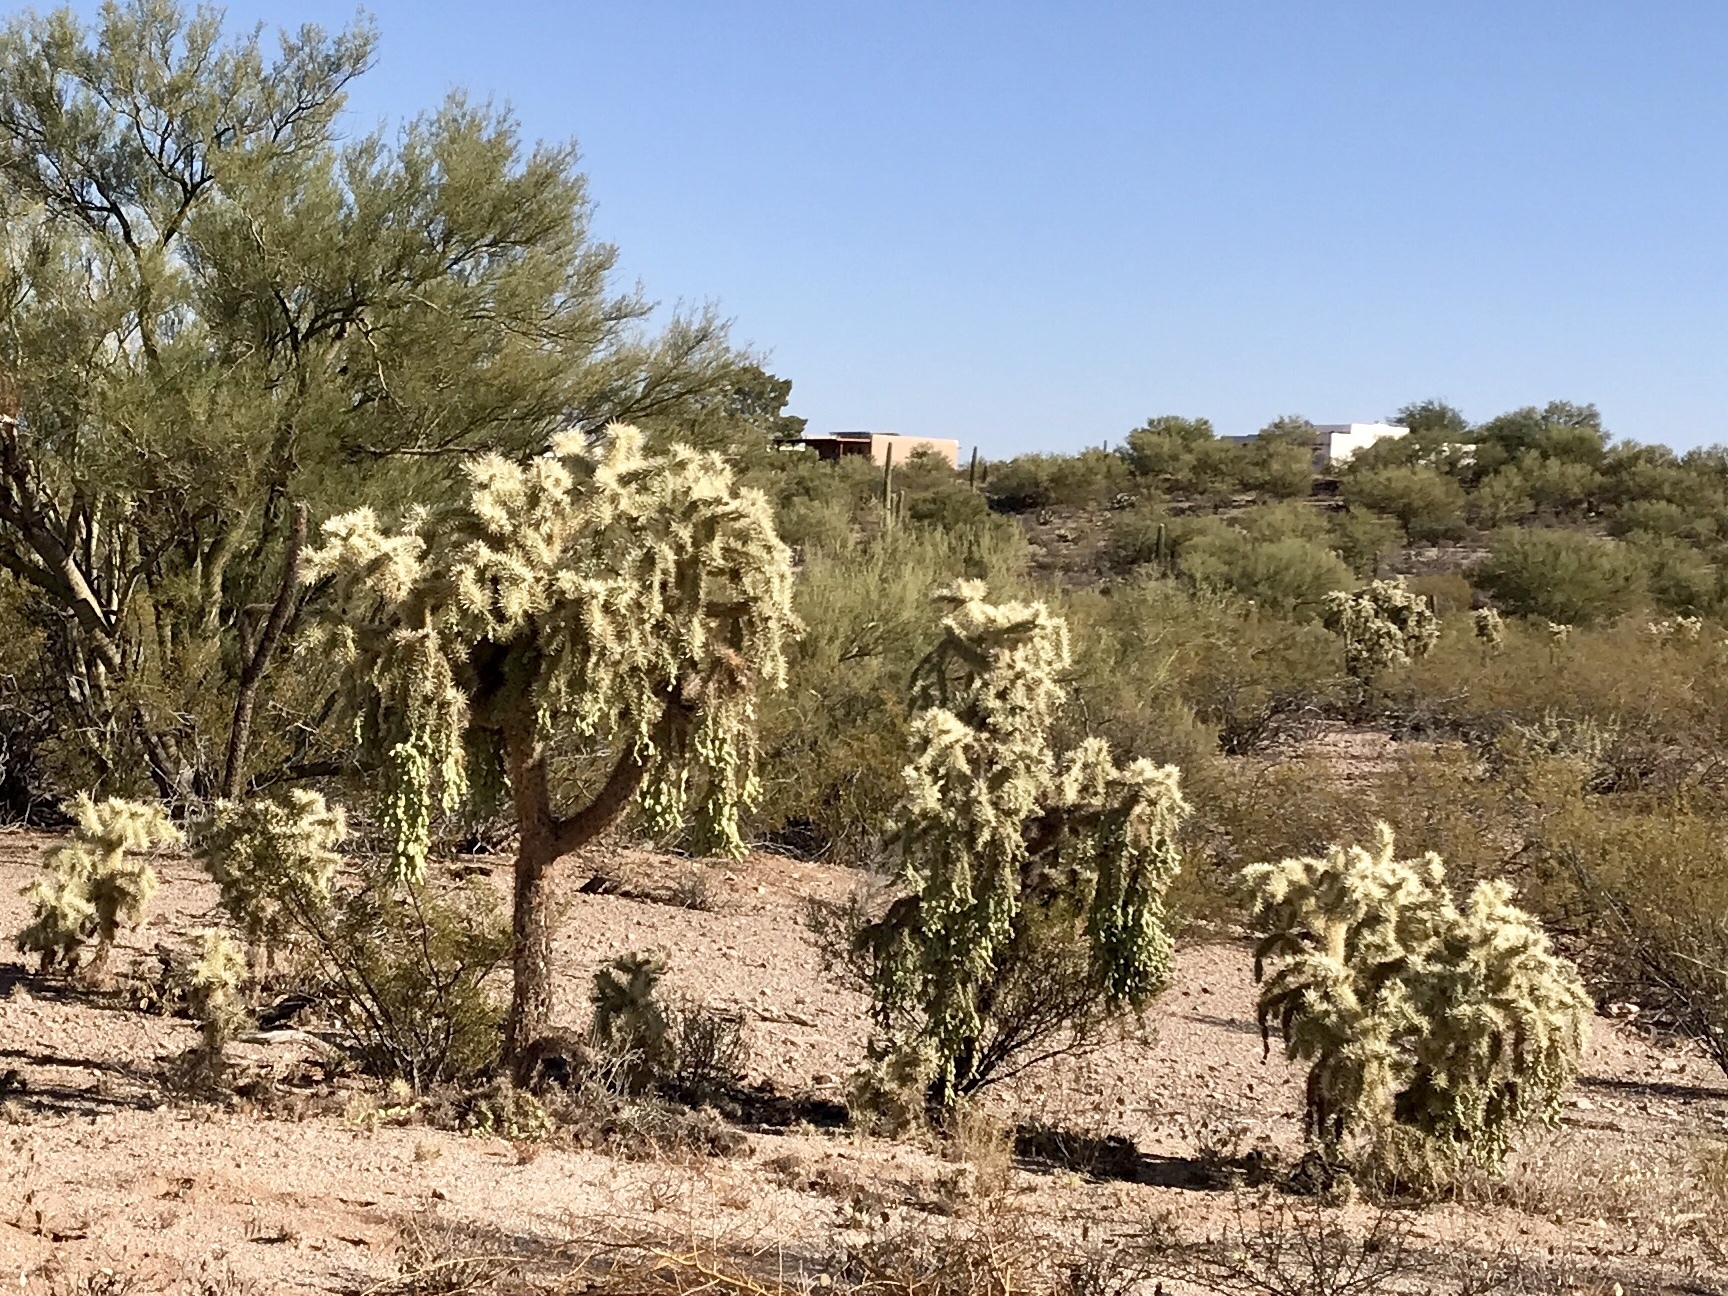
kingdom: Plantae
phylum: Tracheophyta
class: Magnoliopsida
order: Caryophyllales
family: Cactaceae
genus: Cylindropuntia
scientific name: Cylindropuntia fulgida
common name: Jumping cholla
